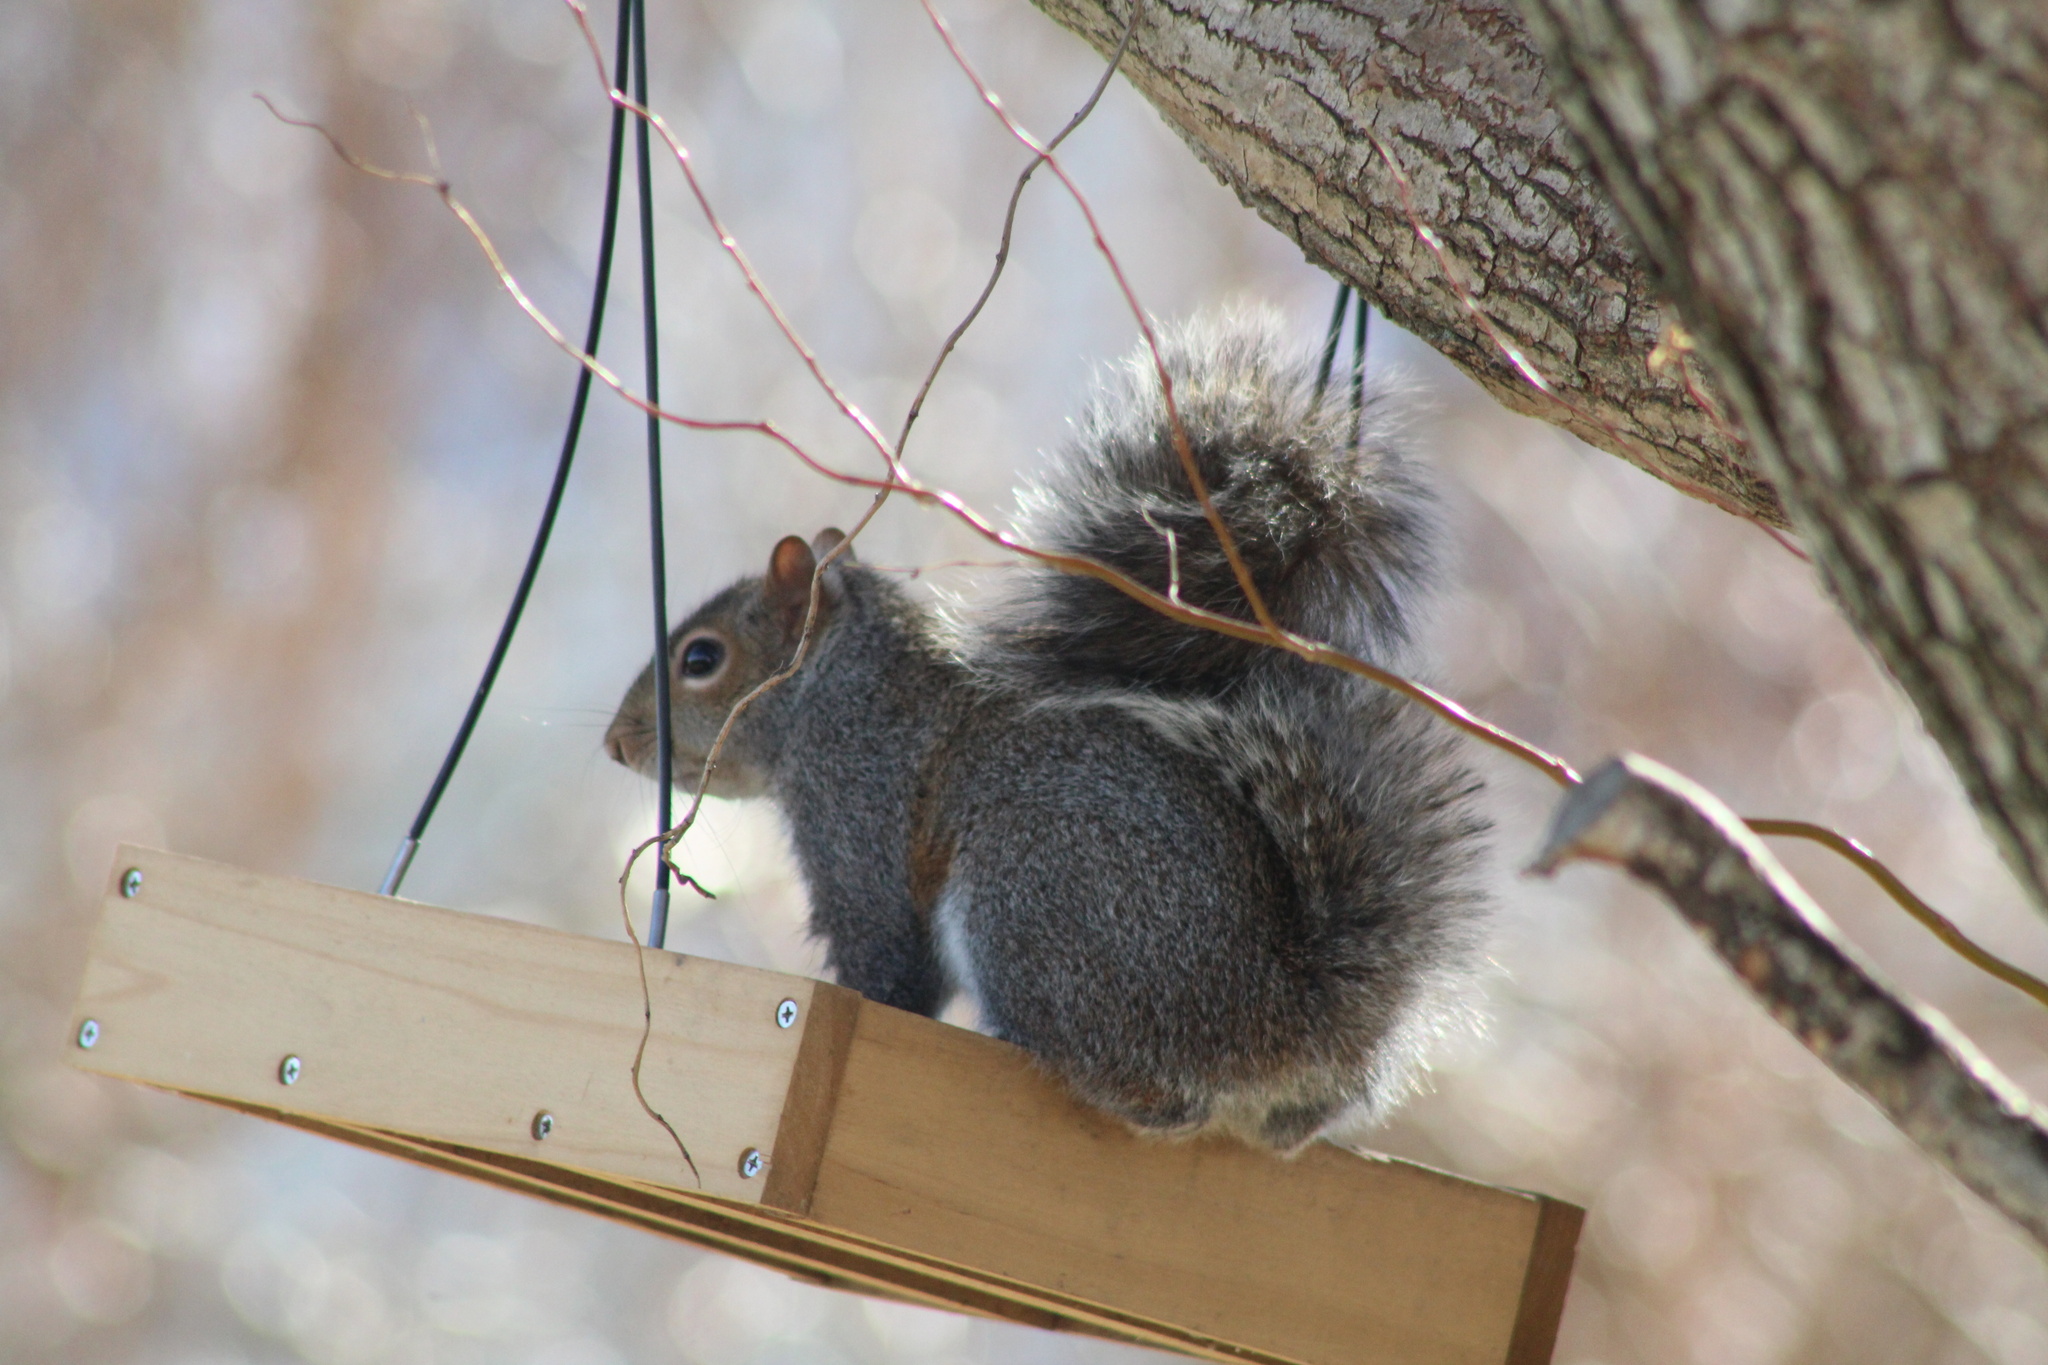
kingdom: Animalia
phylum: Chordata
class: Mammalia
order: Rodentia
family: Sciuridae
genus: Sciurus
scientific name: Sciurus carolinensis
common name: Eastern gray squirrel
